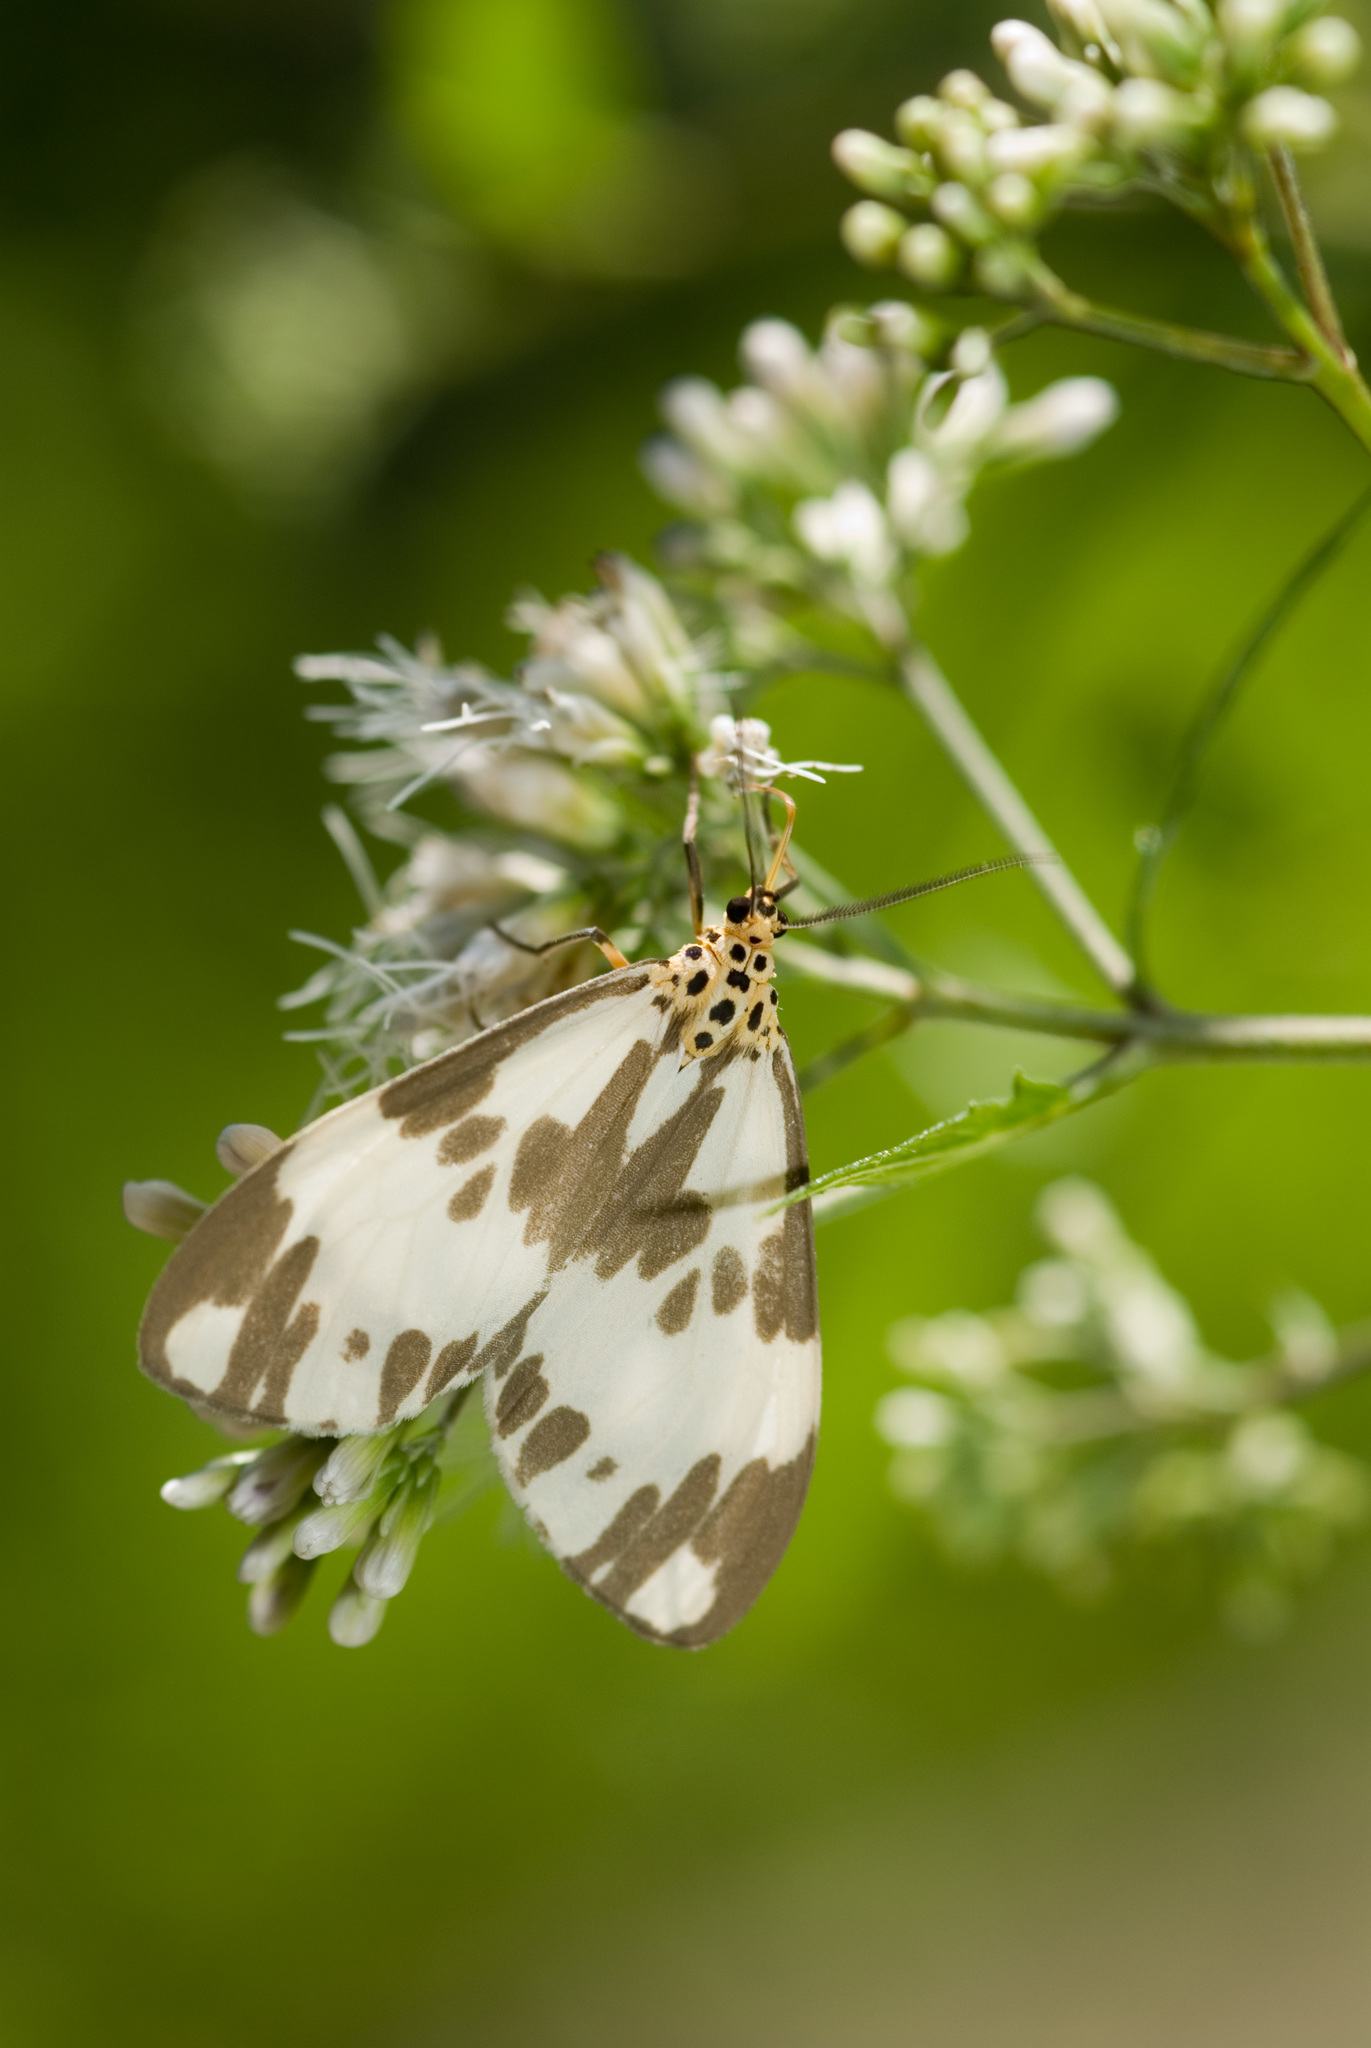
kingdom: Animalia
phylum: Arthropoda
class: Insecta
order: Lepidoptera
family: Erebidae
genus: Nyctemera
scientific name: Nyctemera carissima
